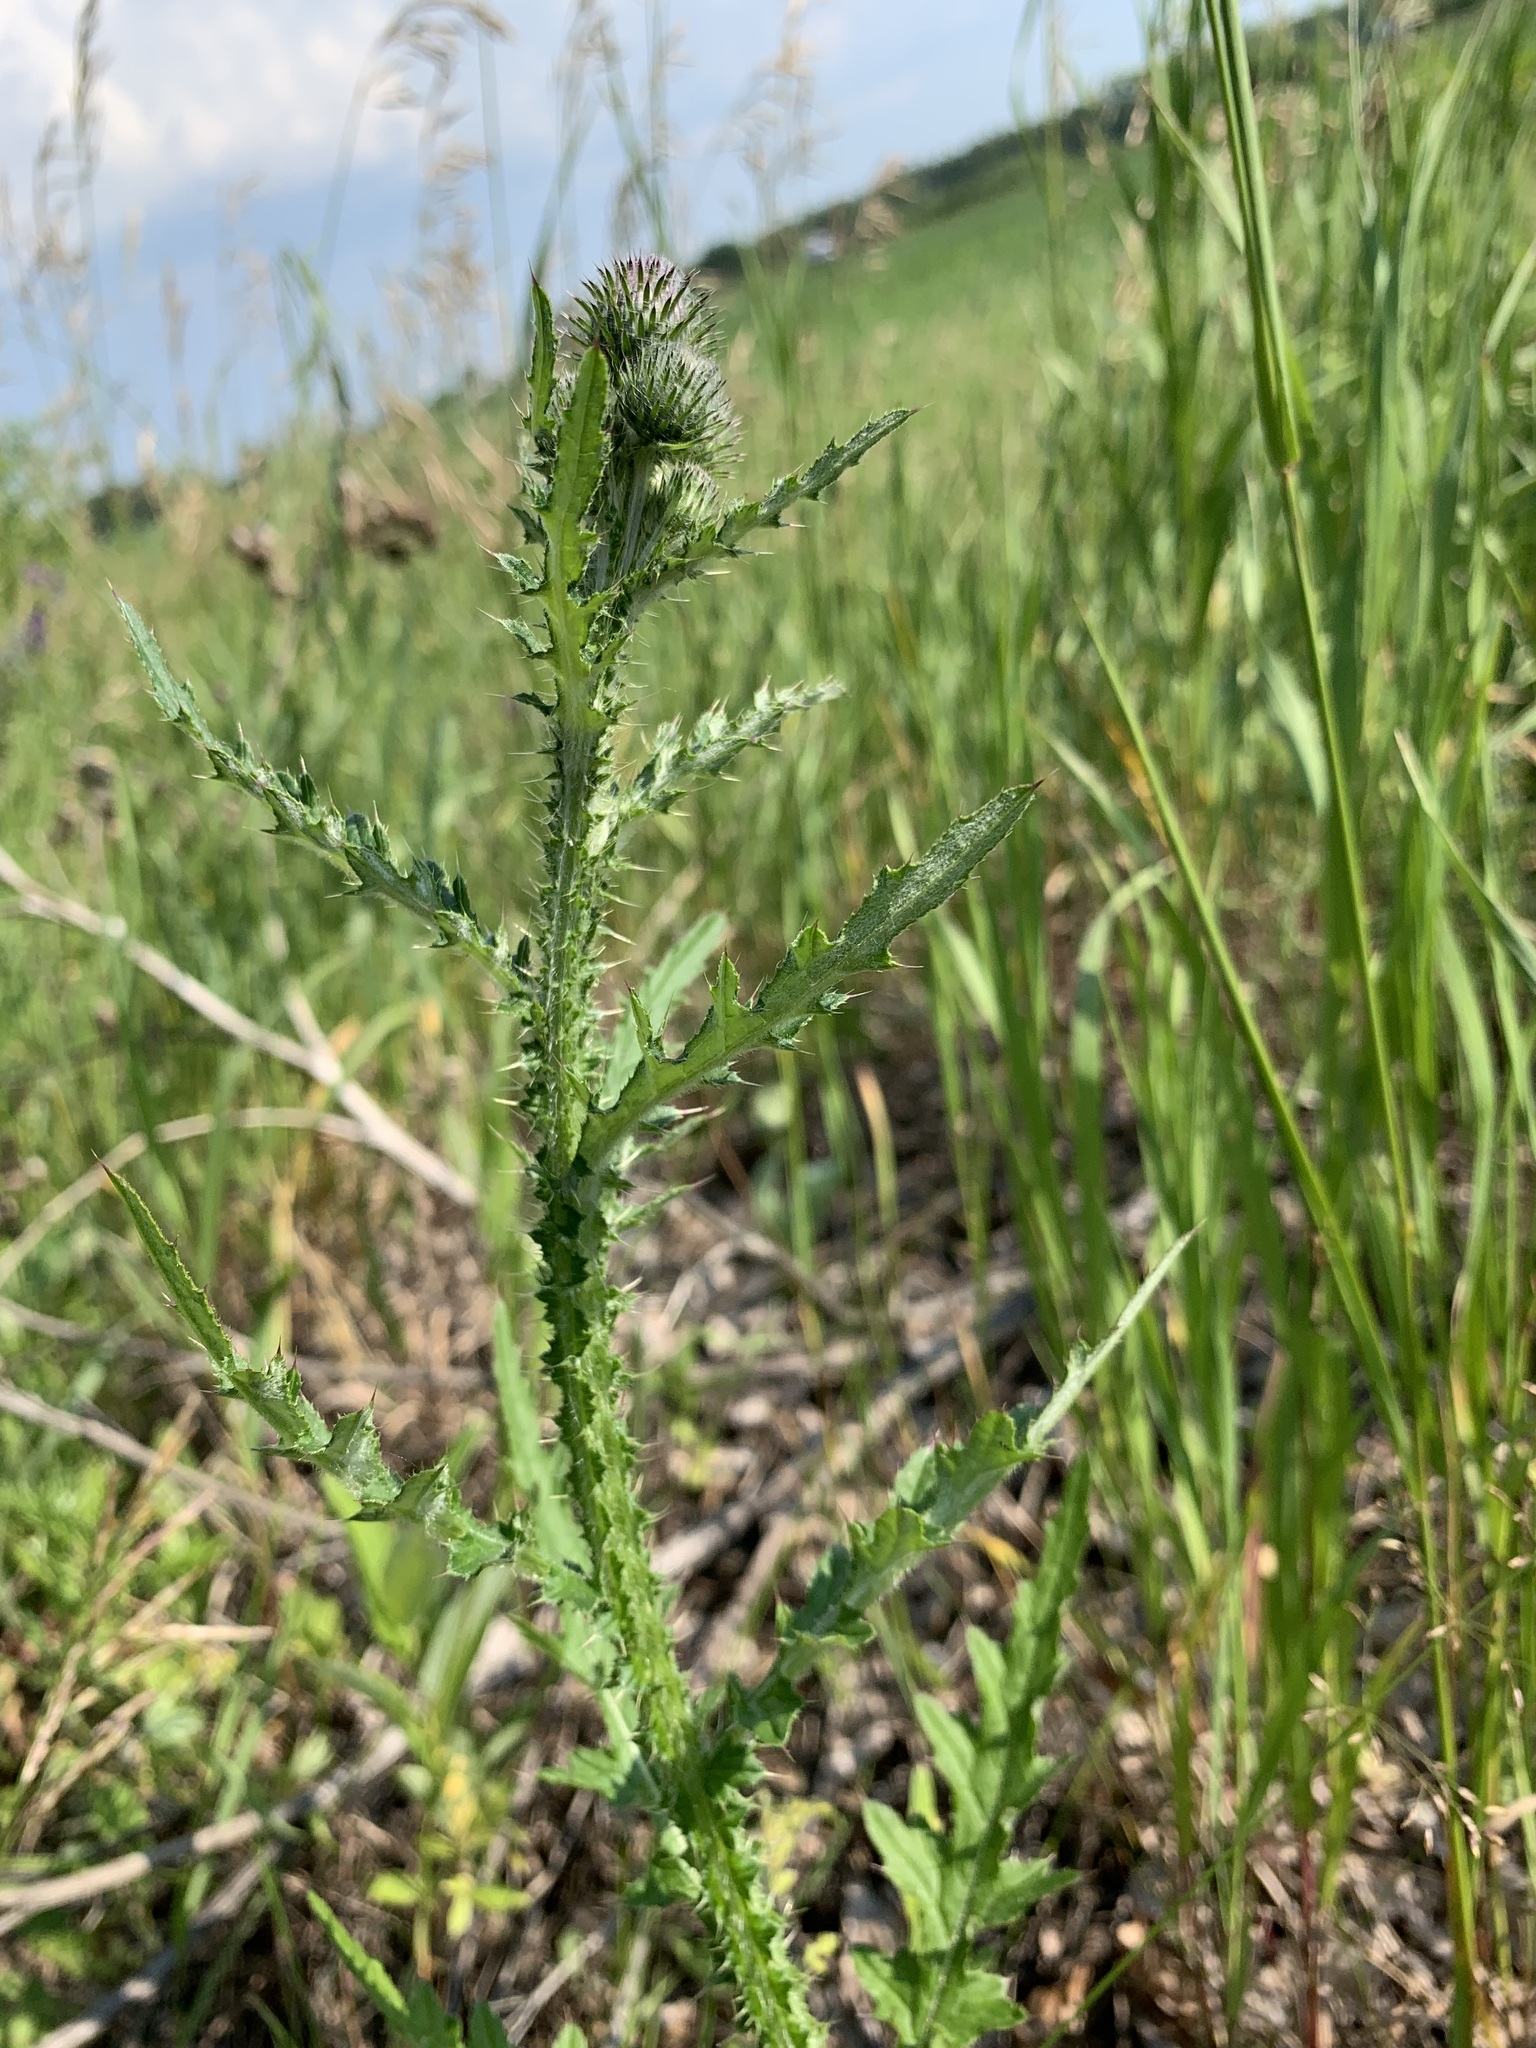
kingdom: Plantae
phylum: Tracheophyta
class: Magnoliopsida
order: Asterales
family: Asteraceae
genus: Carduus
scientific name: Carduus crispus
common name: Welted thistle
